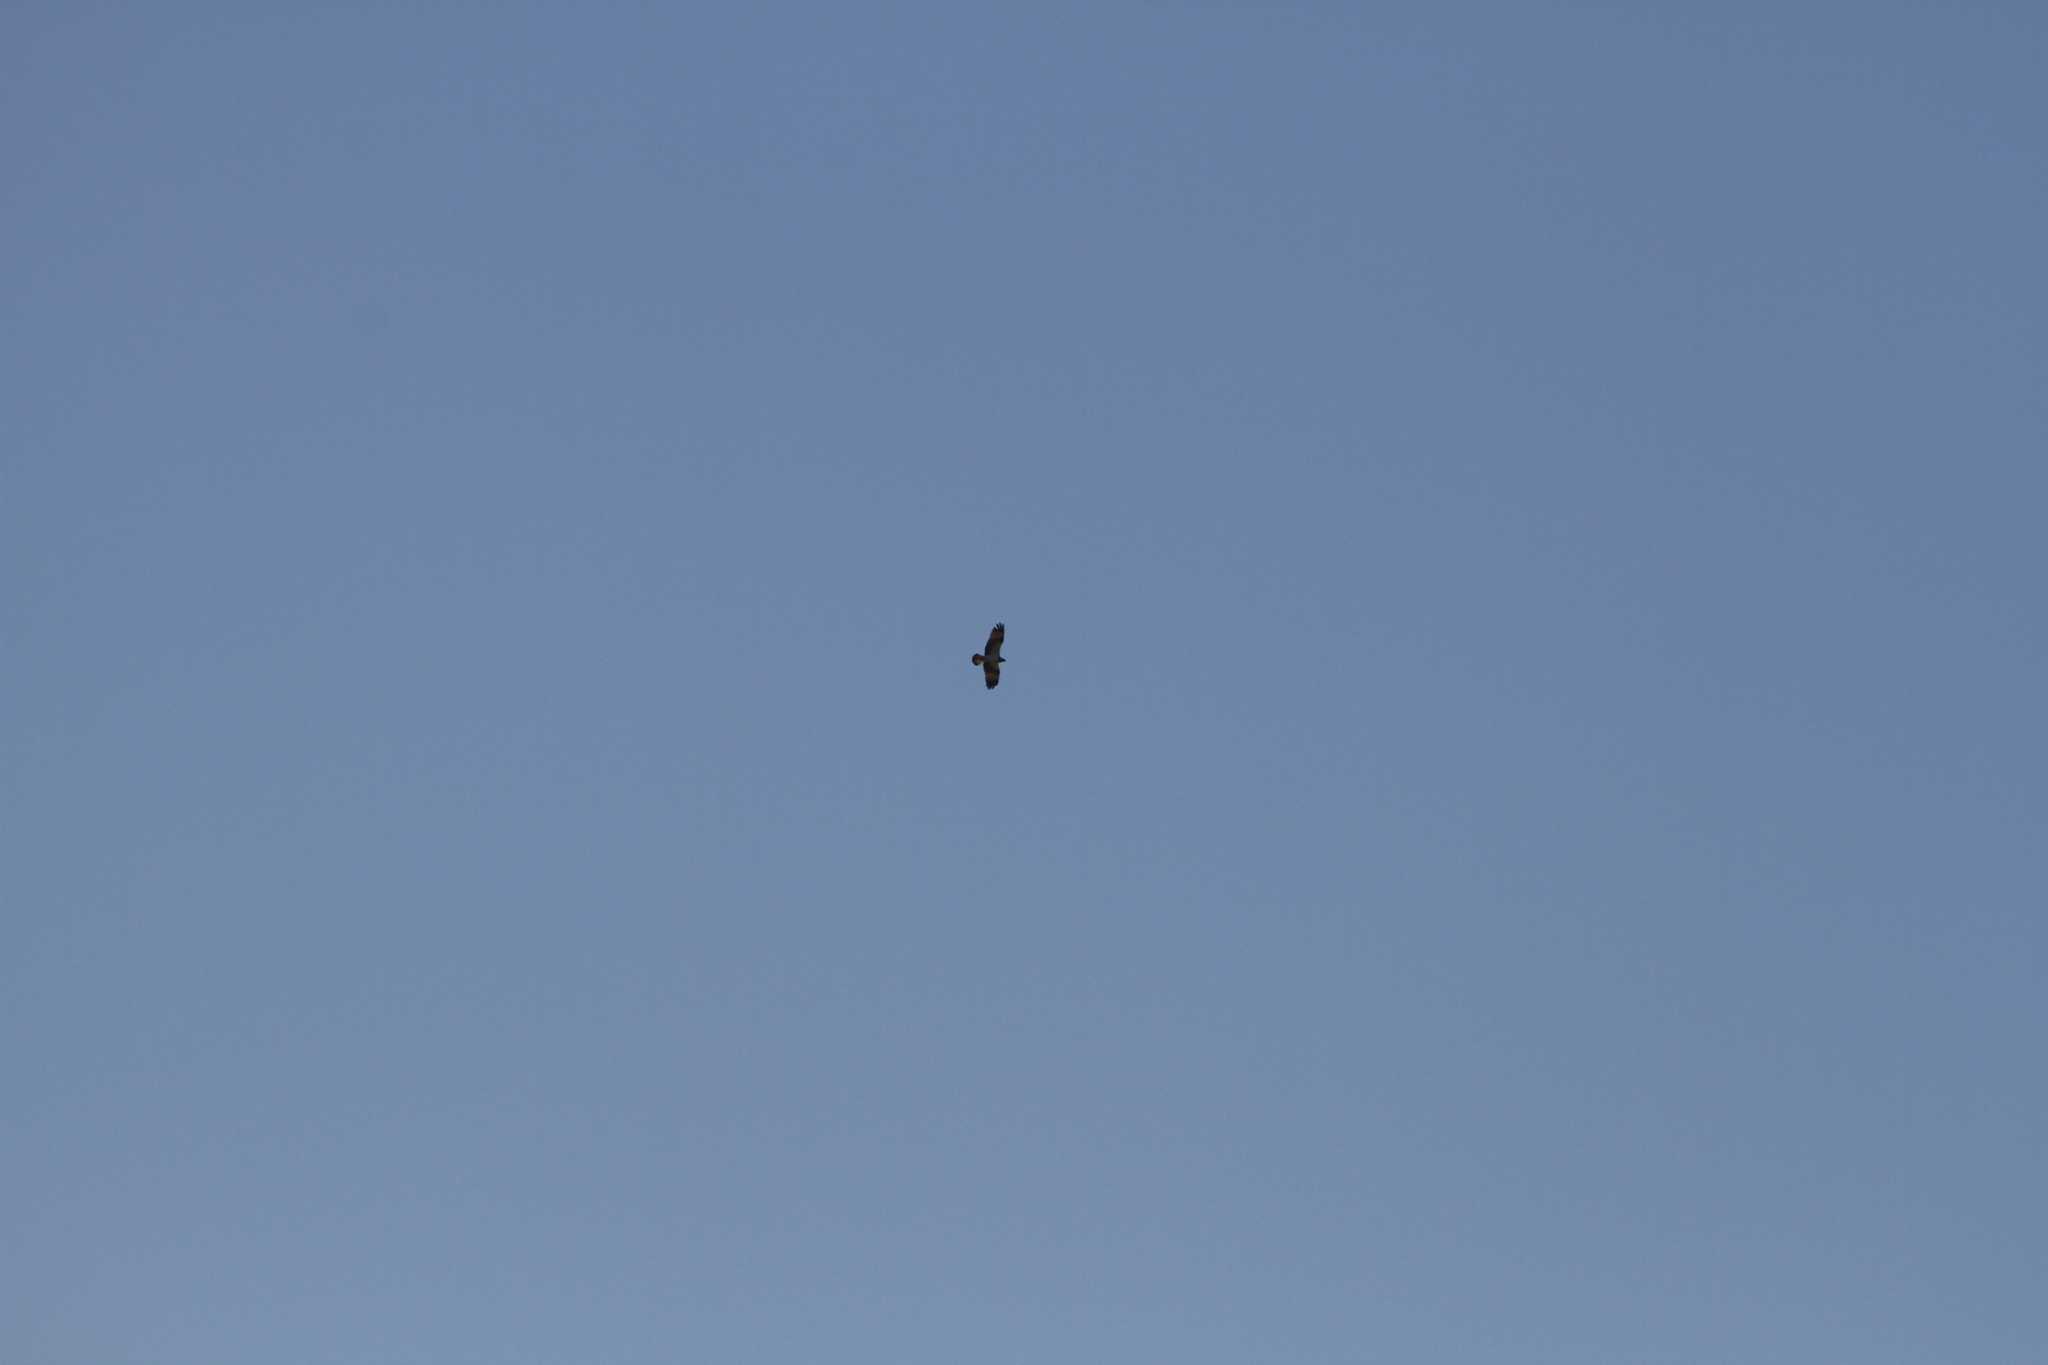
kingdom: Animalia
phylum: Chordata
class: Aves
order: Accipitriformes
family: Pandionidae
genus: Pandion
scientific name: Pandion haliaetus
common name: Osprey
